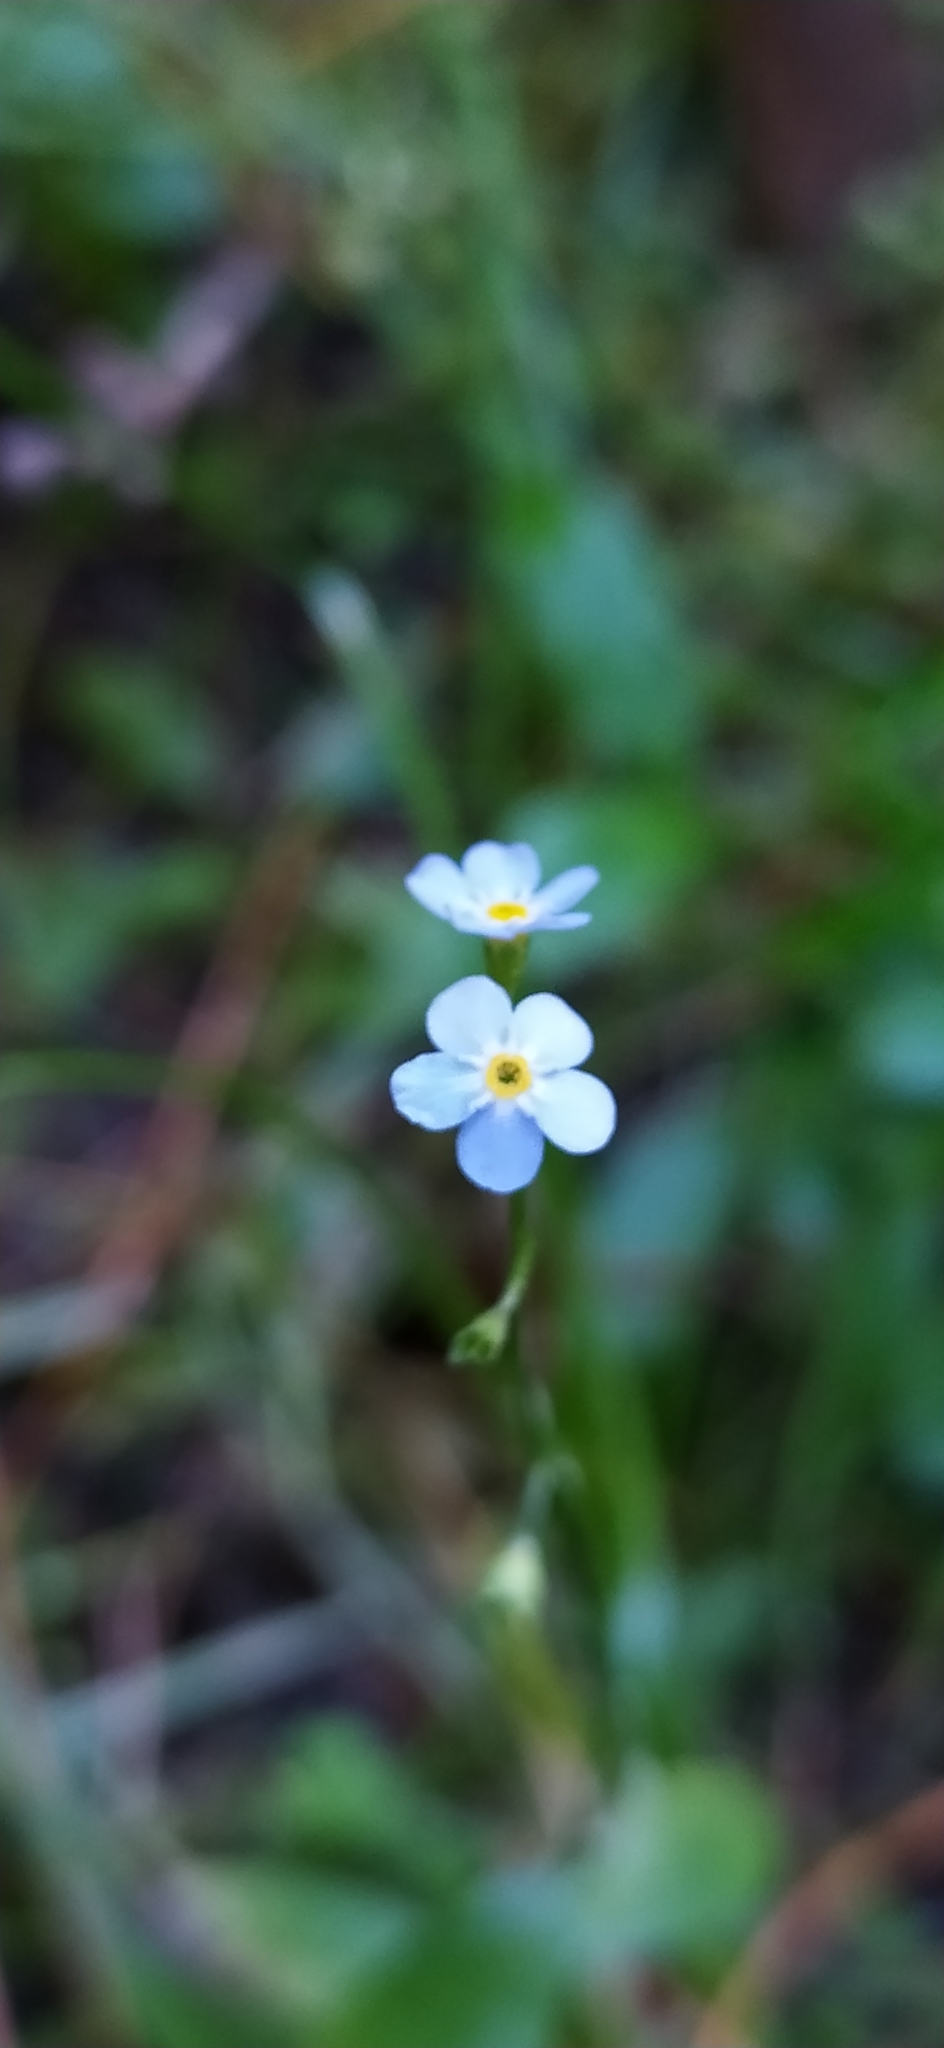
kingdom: Plantae
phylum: Tracheophyta
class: Magnoliopsida
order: Boraginales
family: Boraginaceae
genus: Myosotis
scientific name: Myosotis scorpioides
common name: Water forget-me-not
